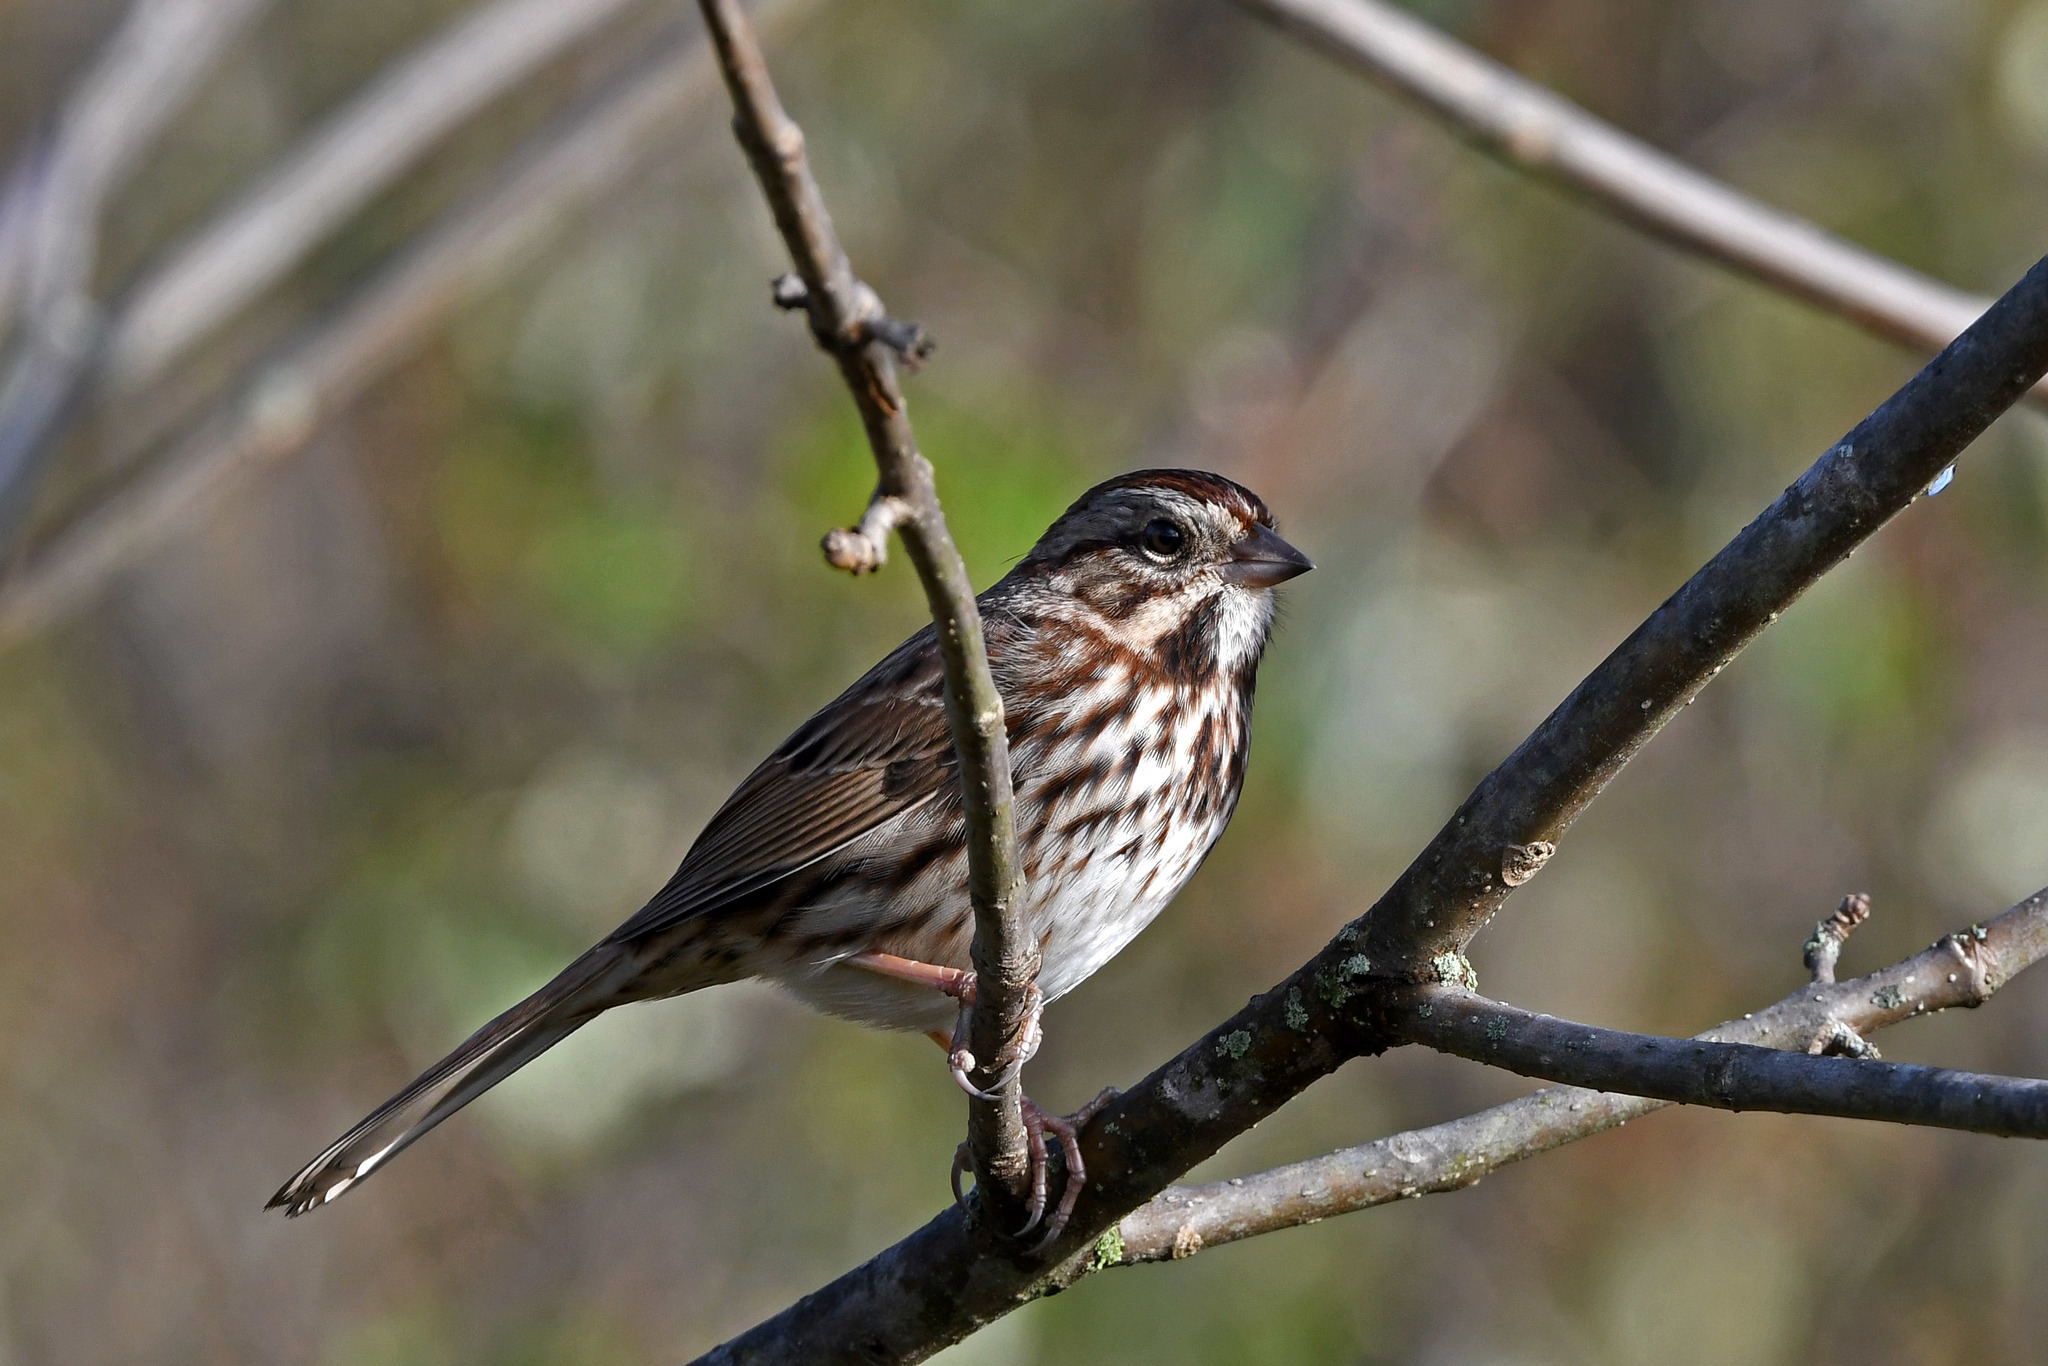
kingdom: Animalia
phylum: Chordata
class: Aves
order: Passeriformes
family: Passerellidae
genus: Melospiza
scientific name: Melospiza melodia
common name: Song sparrow
